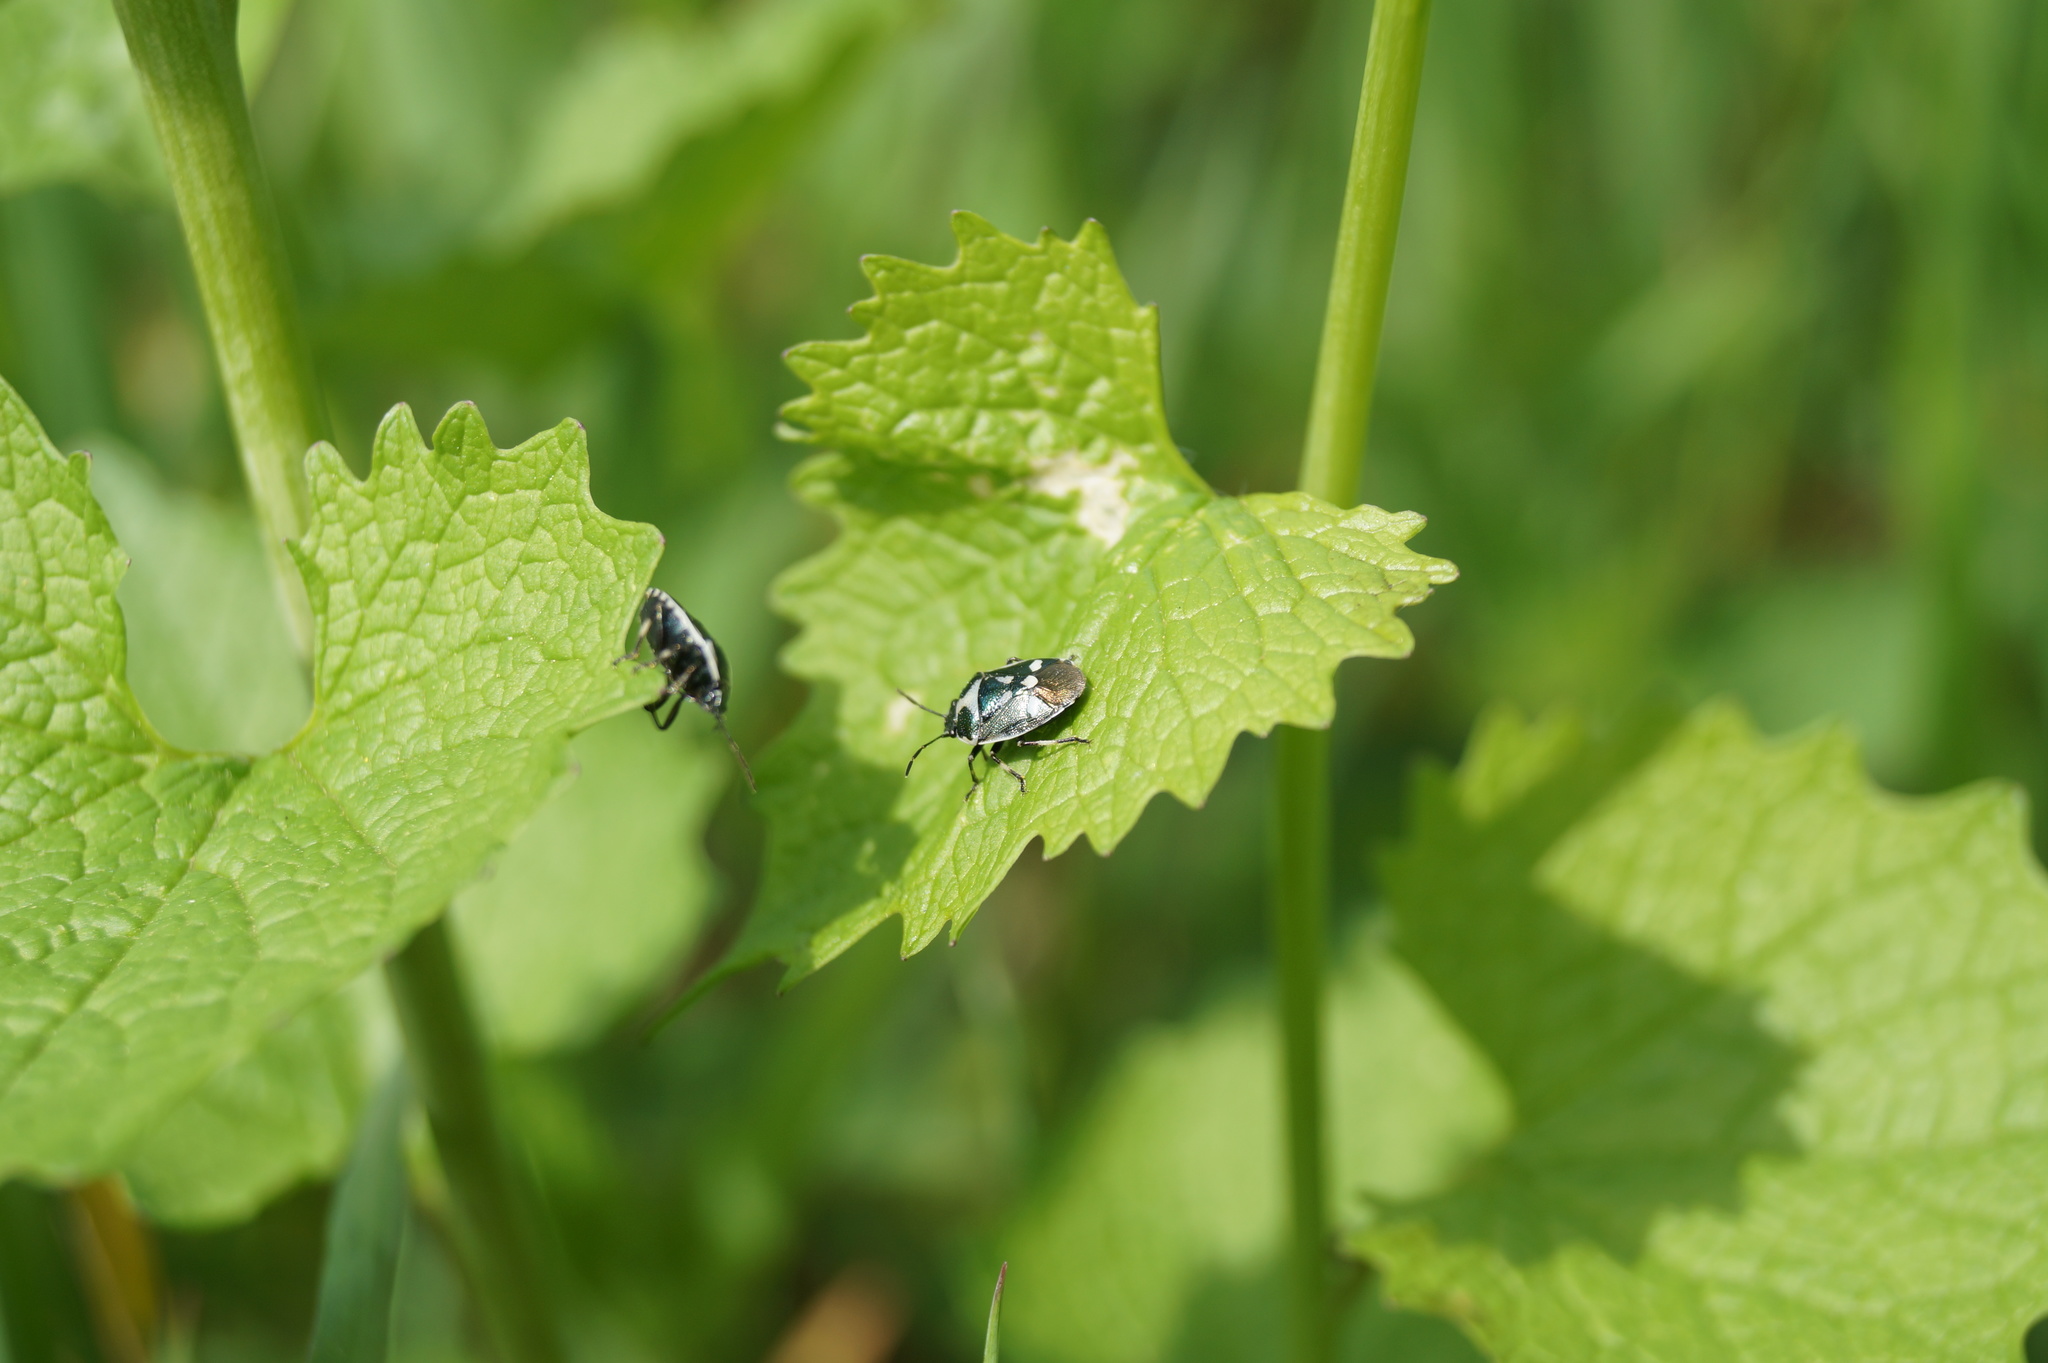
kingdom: Animalia
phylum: Arthropoda
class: Insecta
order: Hemiptera
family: Pentatomidae
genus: Eurydema
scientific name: Eurydema oleracea
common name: Cabbage bug
